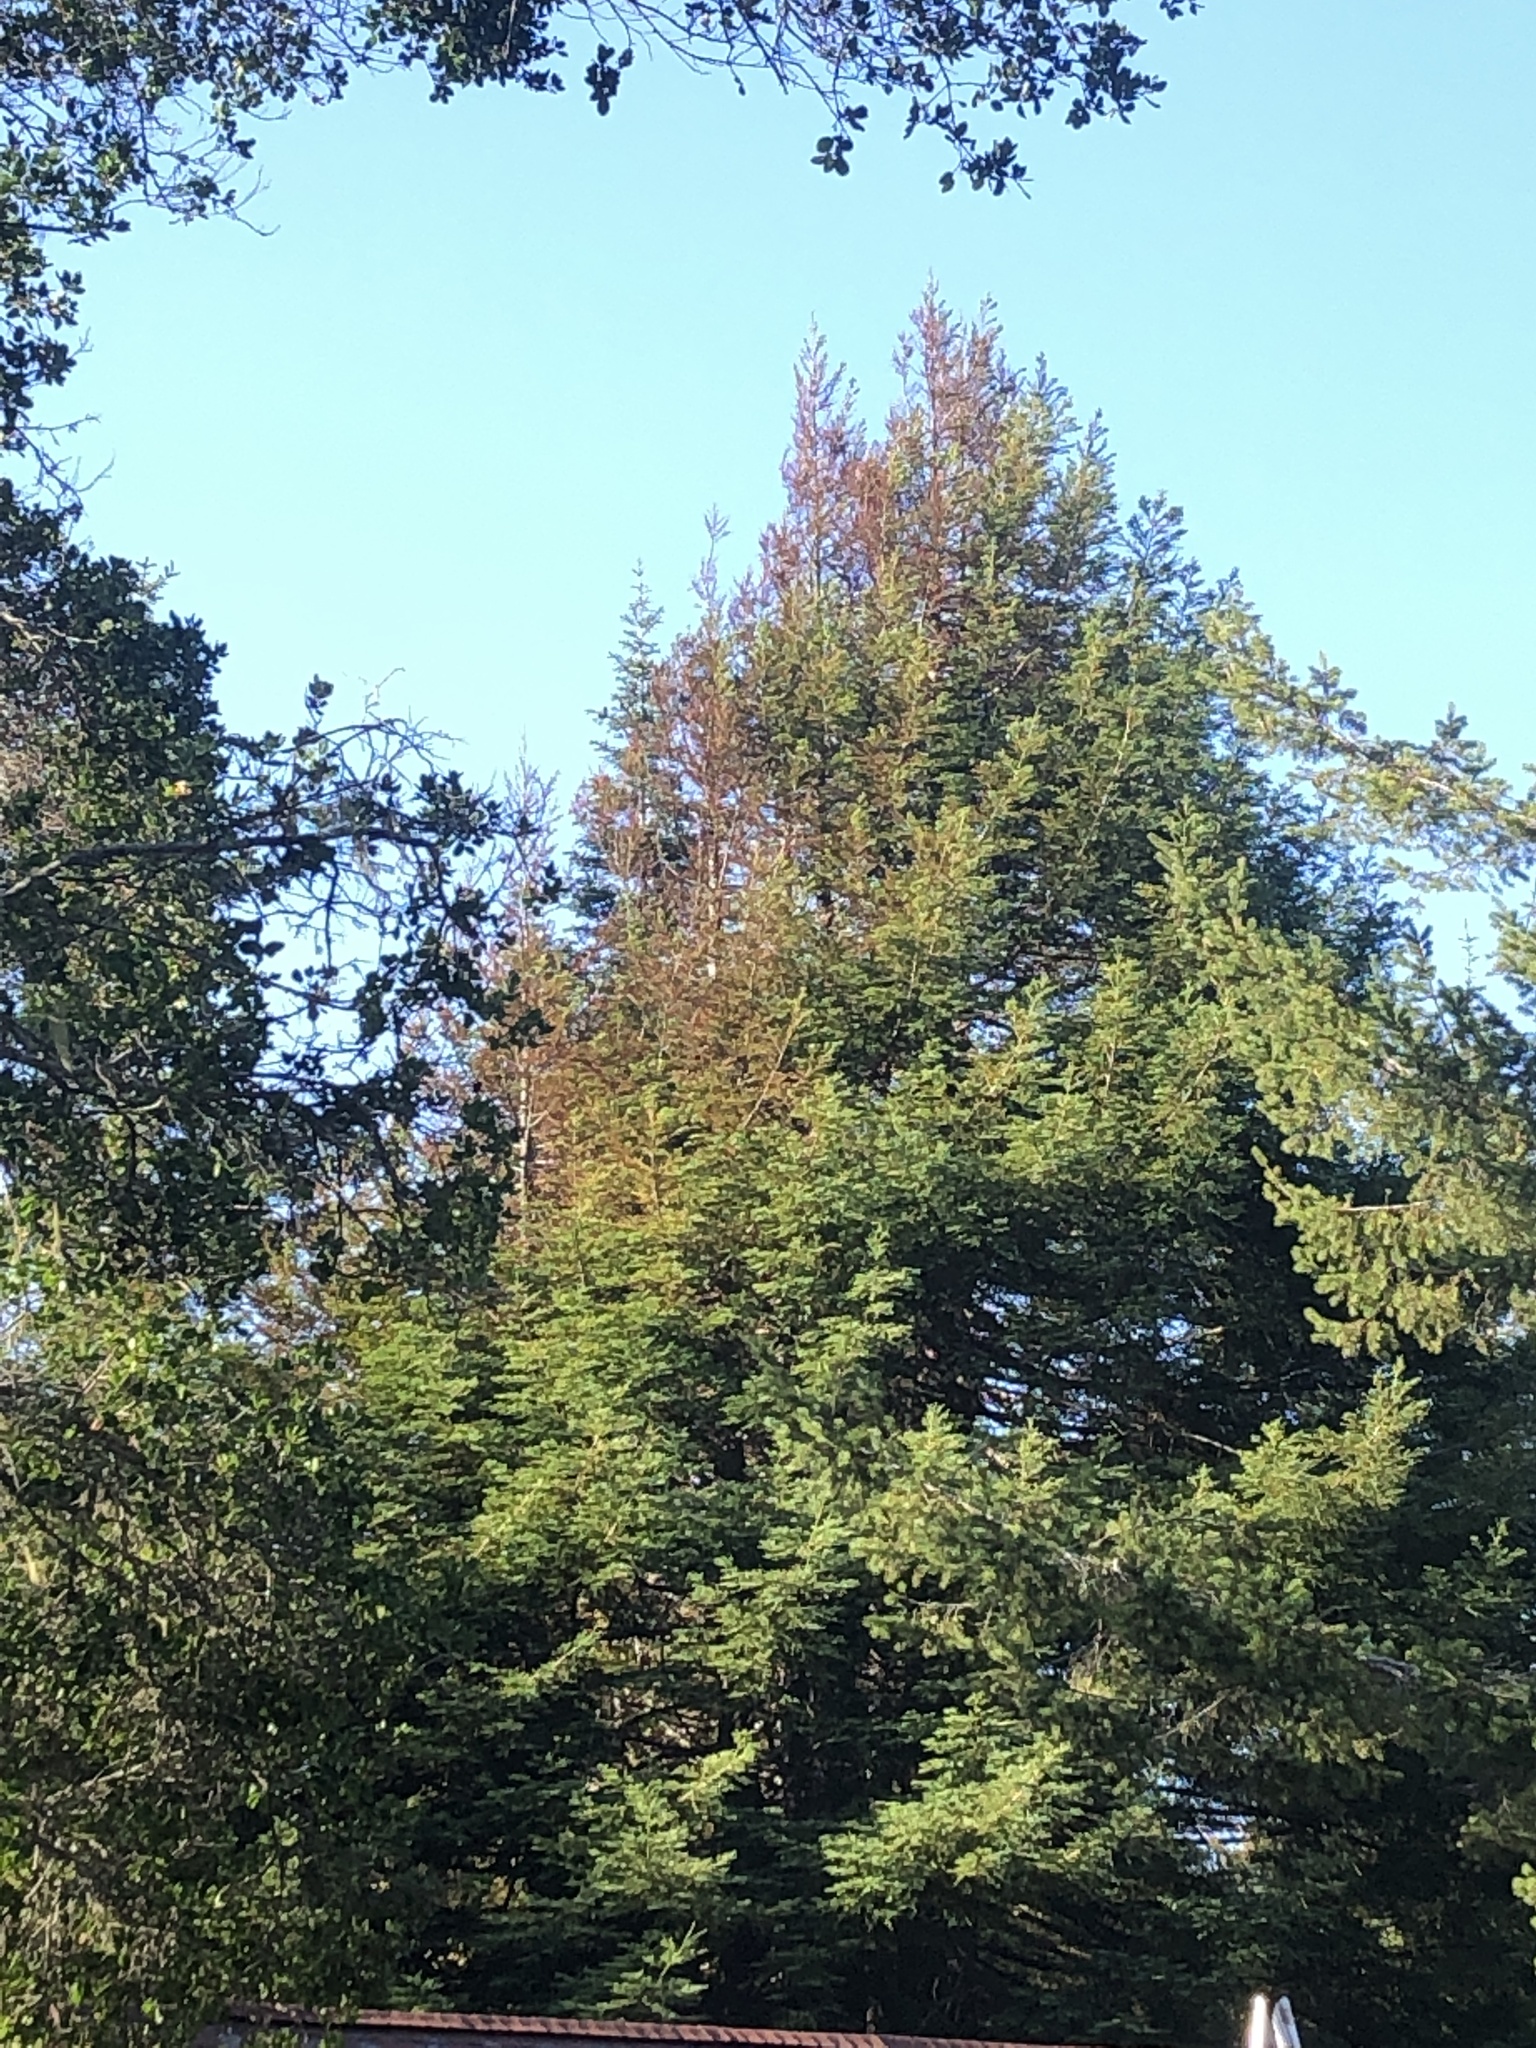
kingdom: Plantae
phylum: Tracheophyta
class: Pinopsida
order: Pinales
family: Cupressaceae
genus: Sequoia
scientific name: Sequoia sempervirens
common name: Coast redwood
